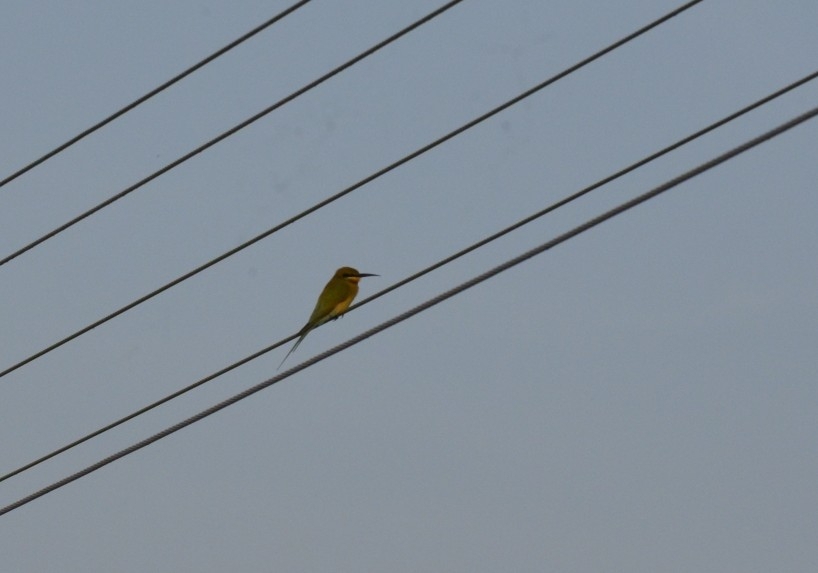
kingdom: Animalia
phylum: Chordata
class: Aves
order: Coraciiformes
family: Meropidae
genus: Merops
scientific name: Merops philippinus
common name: Blue-tailed bee-eater
